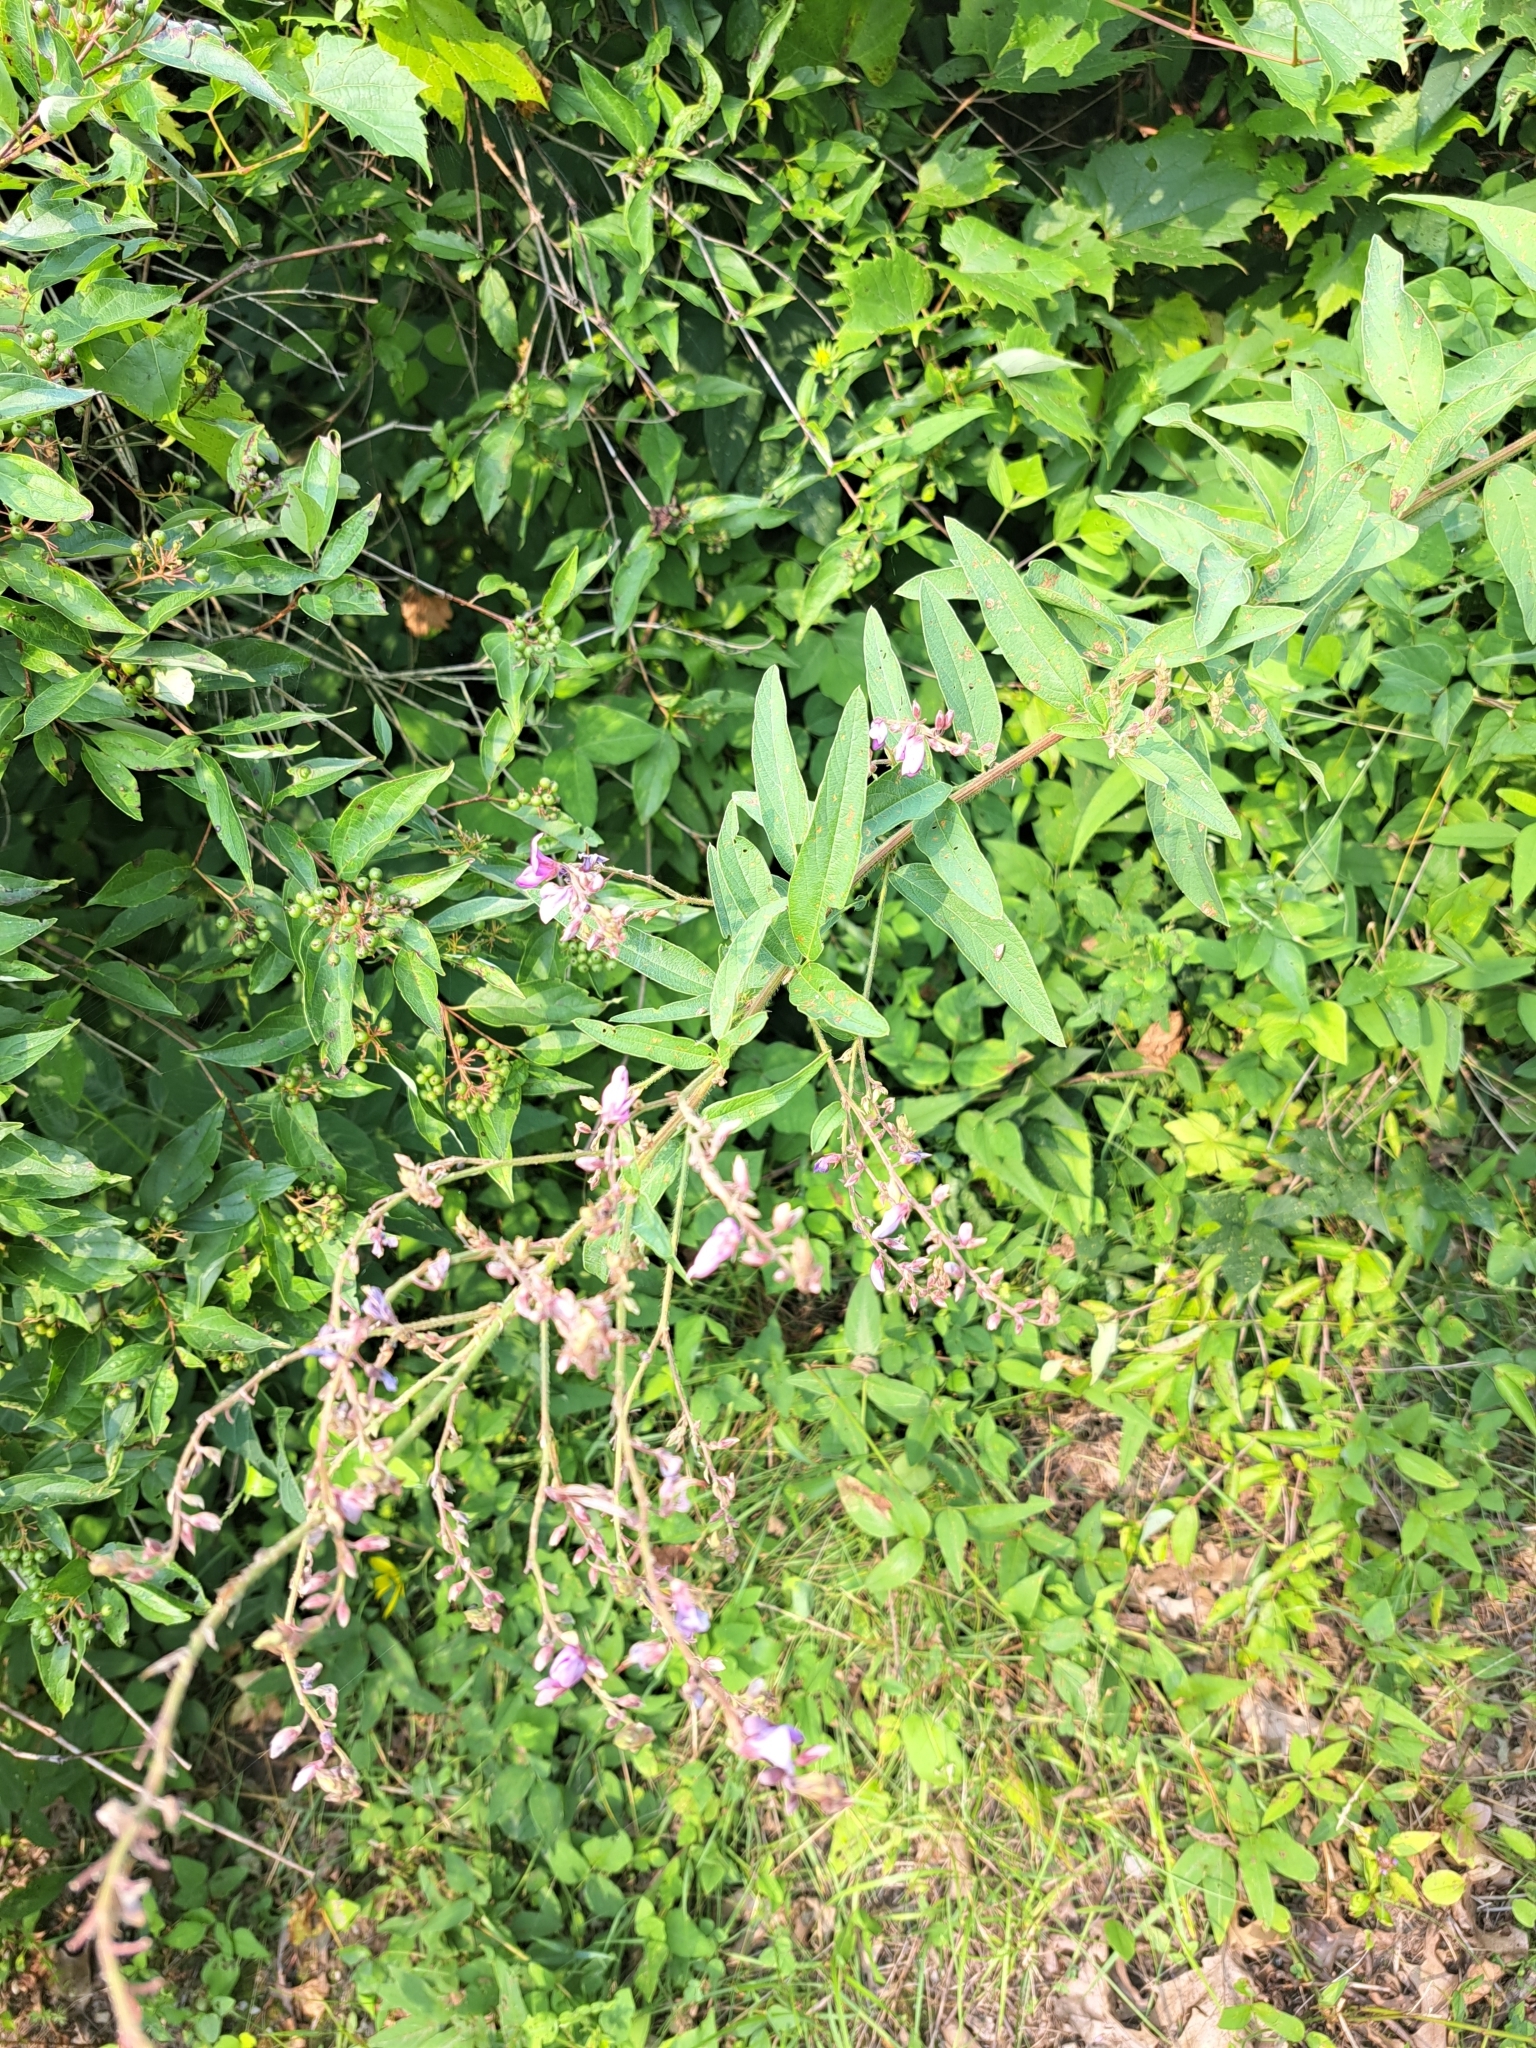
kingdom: Plantae
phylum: Tracheophyta
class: Magnoliopsida
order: Fabales
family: Fabaceae
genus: Desmodium
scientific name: Desmodium canadense
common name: Canada tick-trefoil
